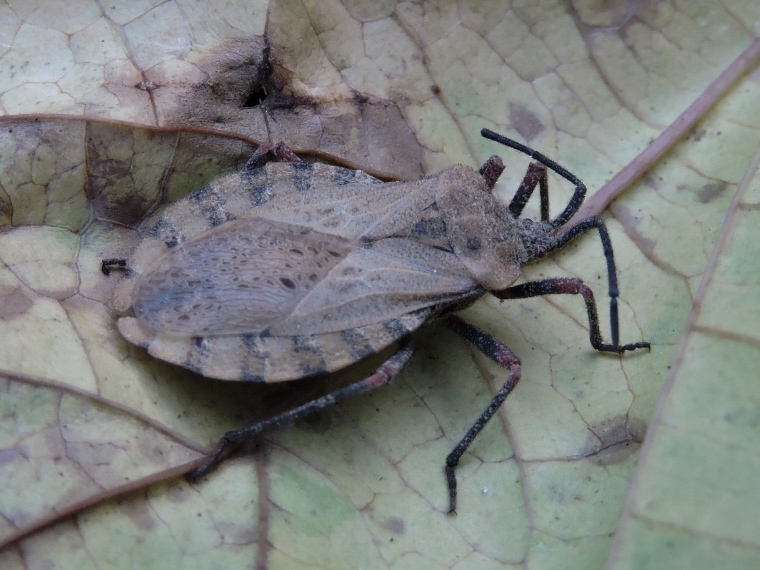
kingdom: Animalia
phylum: Arthropoda
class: Insecta
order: Hemiptera
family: Coreidae
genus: Spartocera
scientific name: Spartocera fusca
